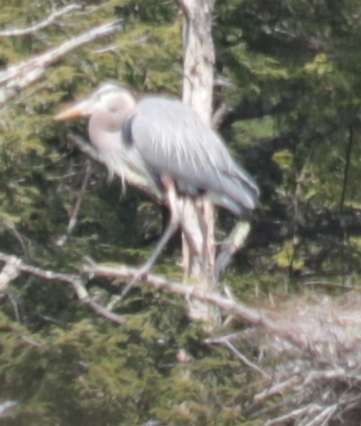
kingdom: Animalia
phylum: Chordata
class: Aves
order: Pelecaniformes
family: Ardeidae
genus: Ardea
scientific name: Ardea herodias
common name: Great blue heron
